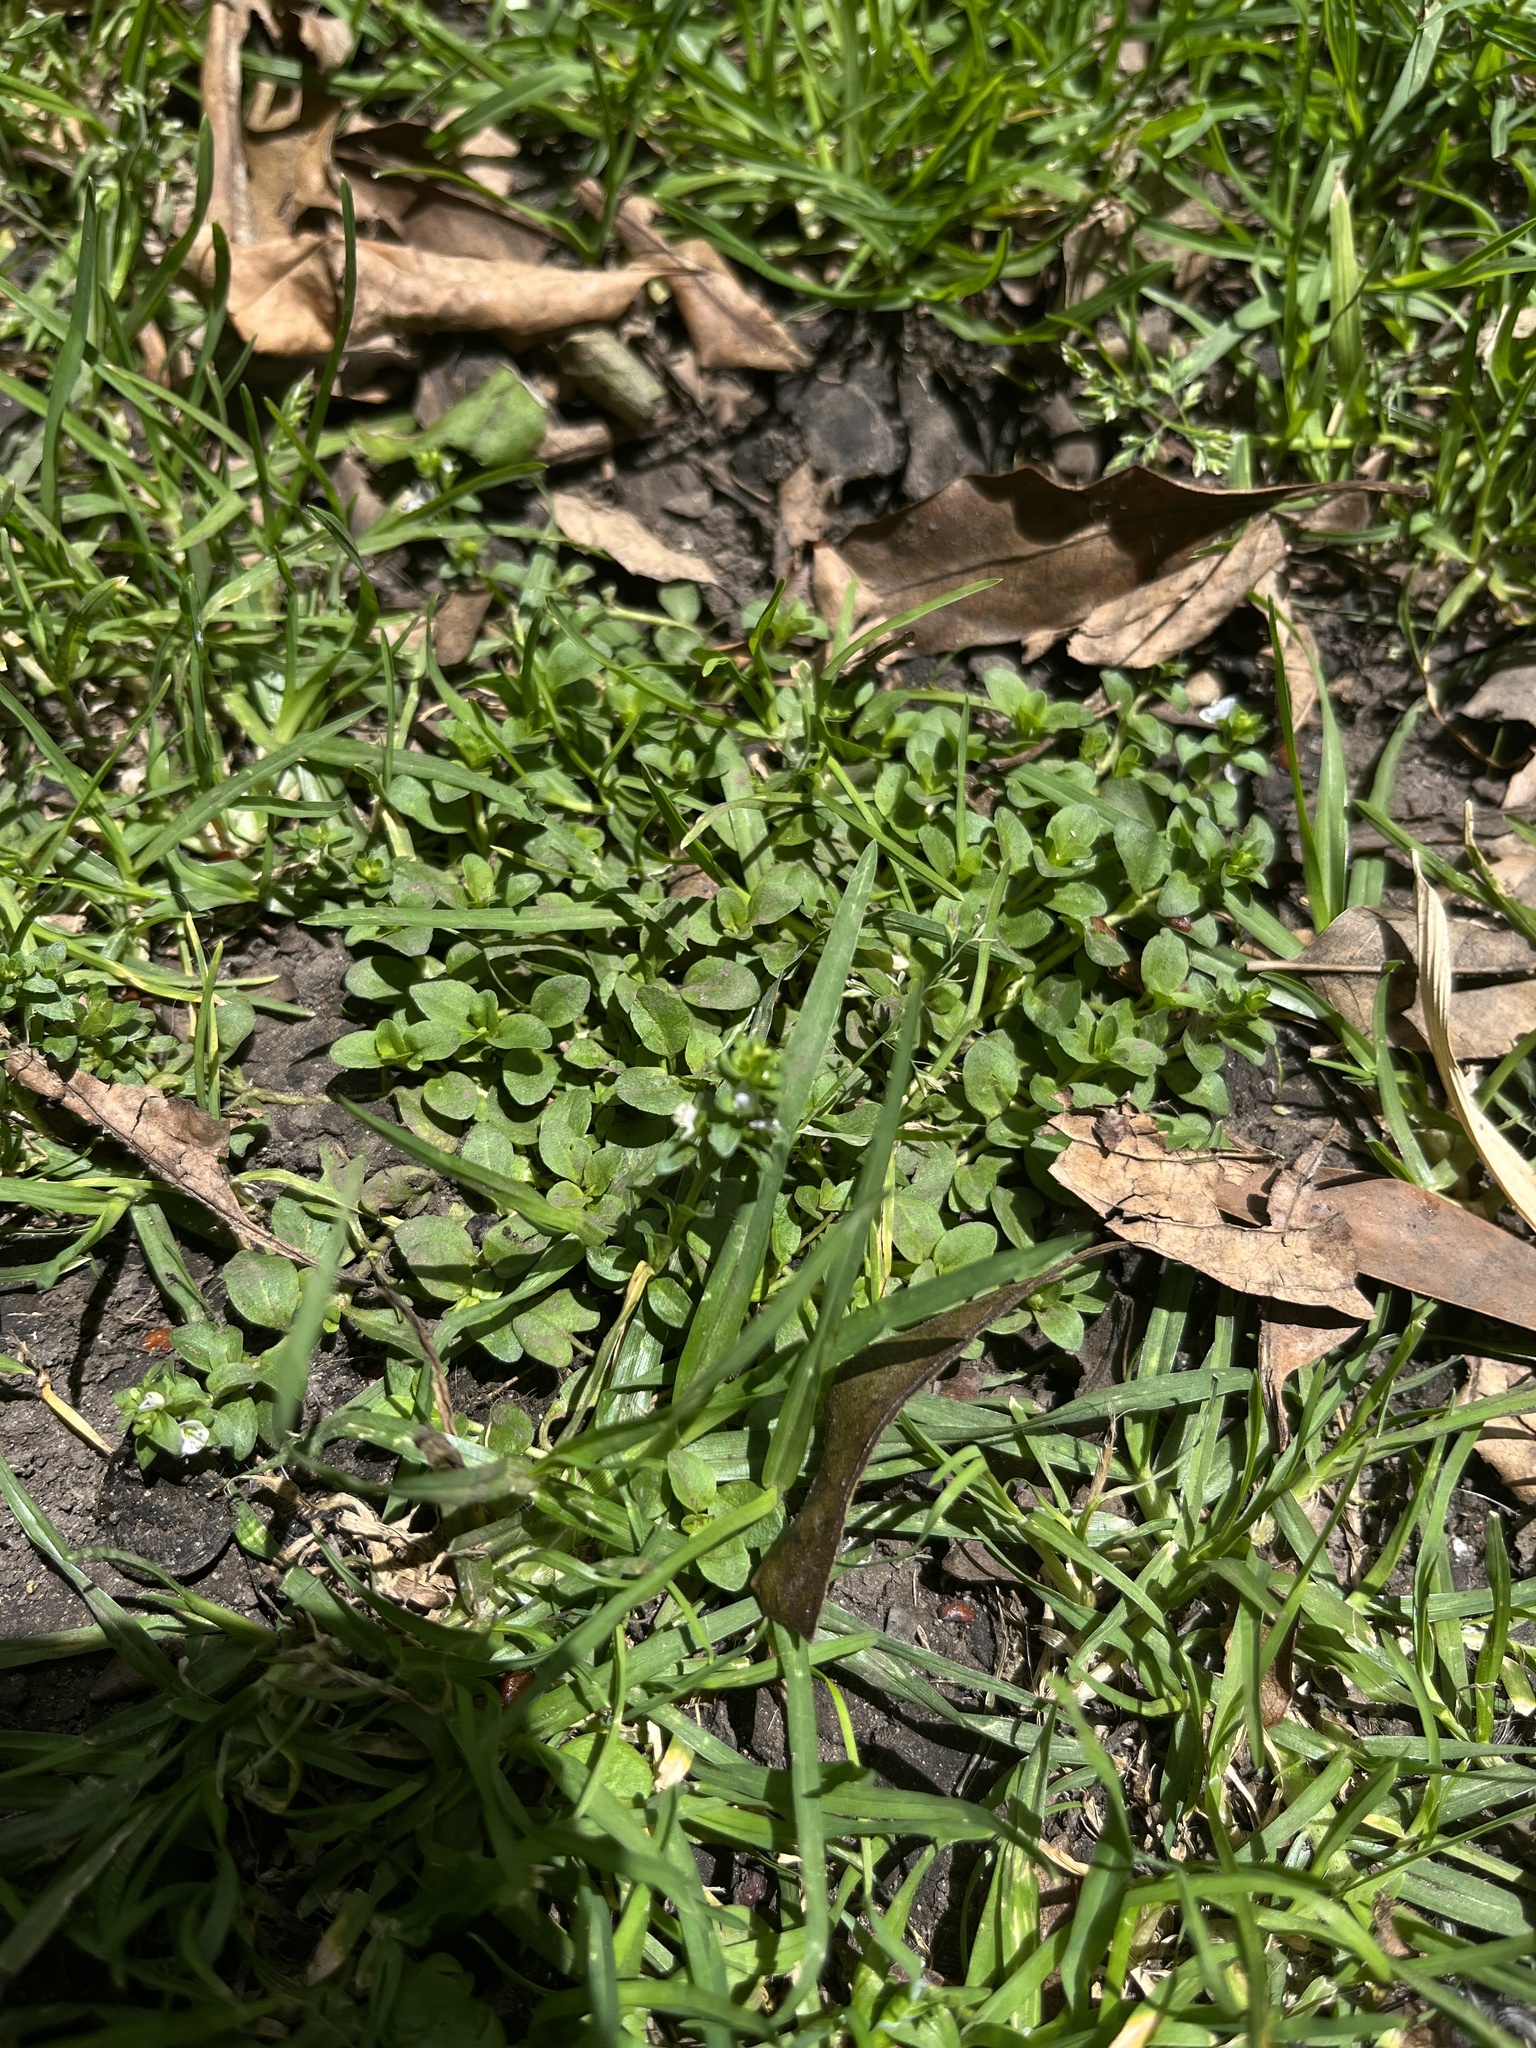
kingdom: Plantae
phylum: Tracheophyta
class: Magnoliopsida
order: Lamiales
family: Plantaginaceae
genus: Veronica
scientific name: Veronica serpyllifolia
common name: Thyme-leaved speedwell
